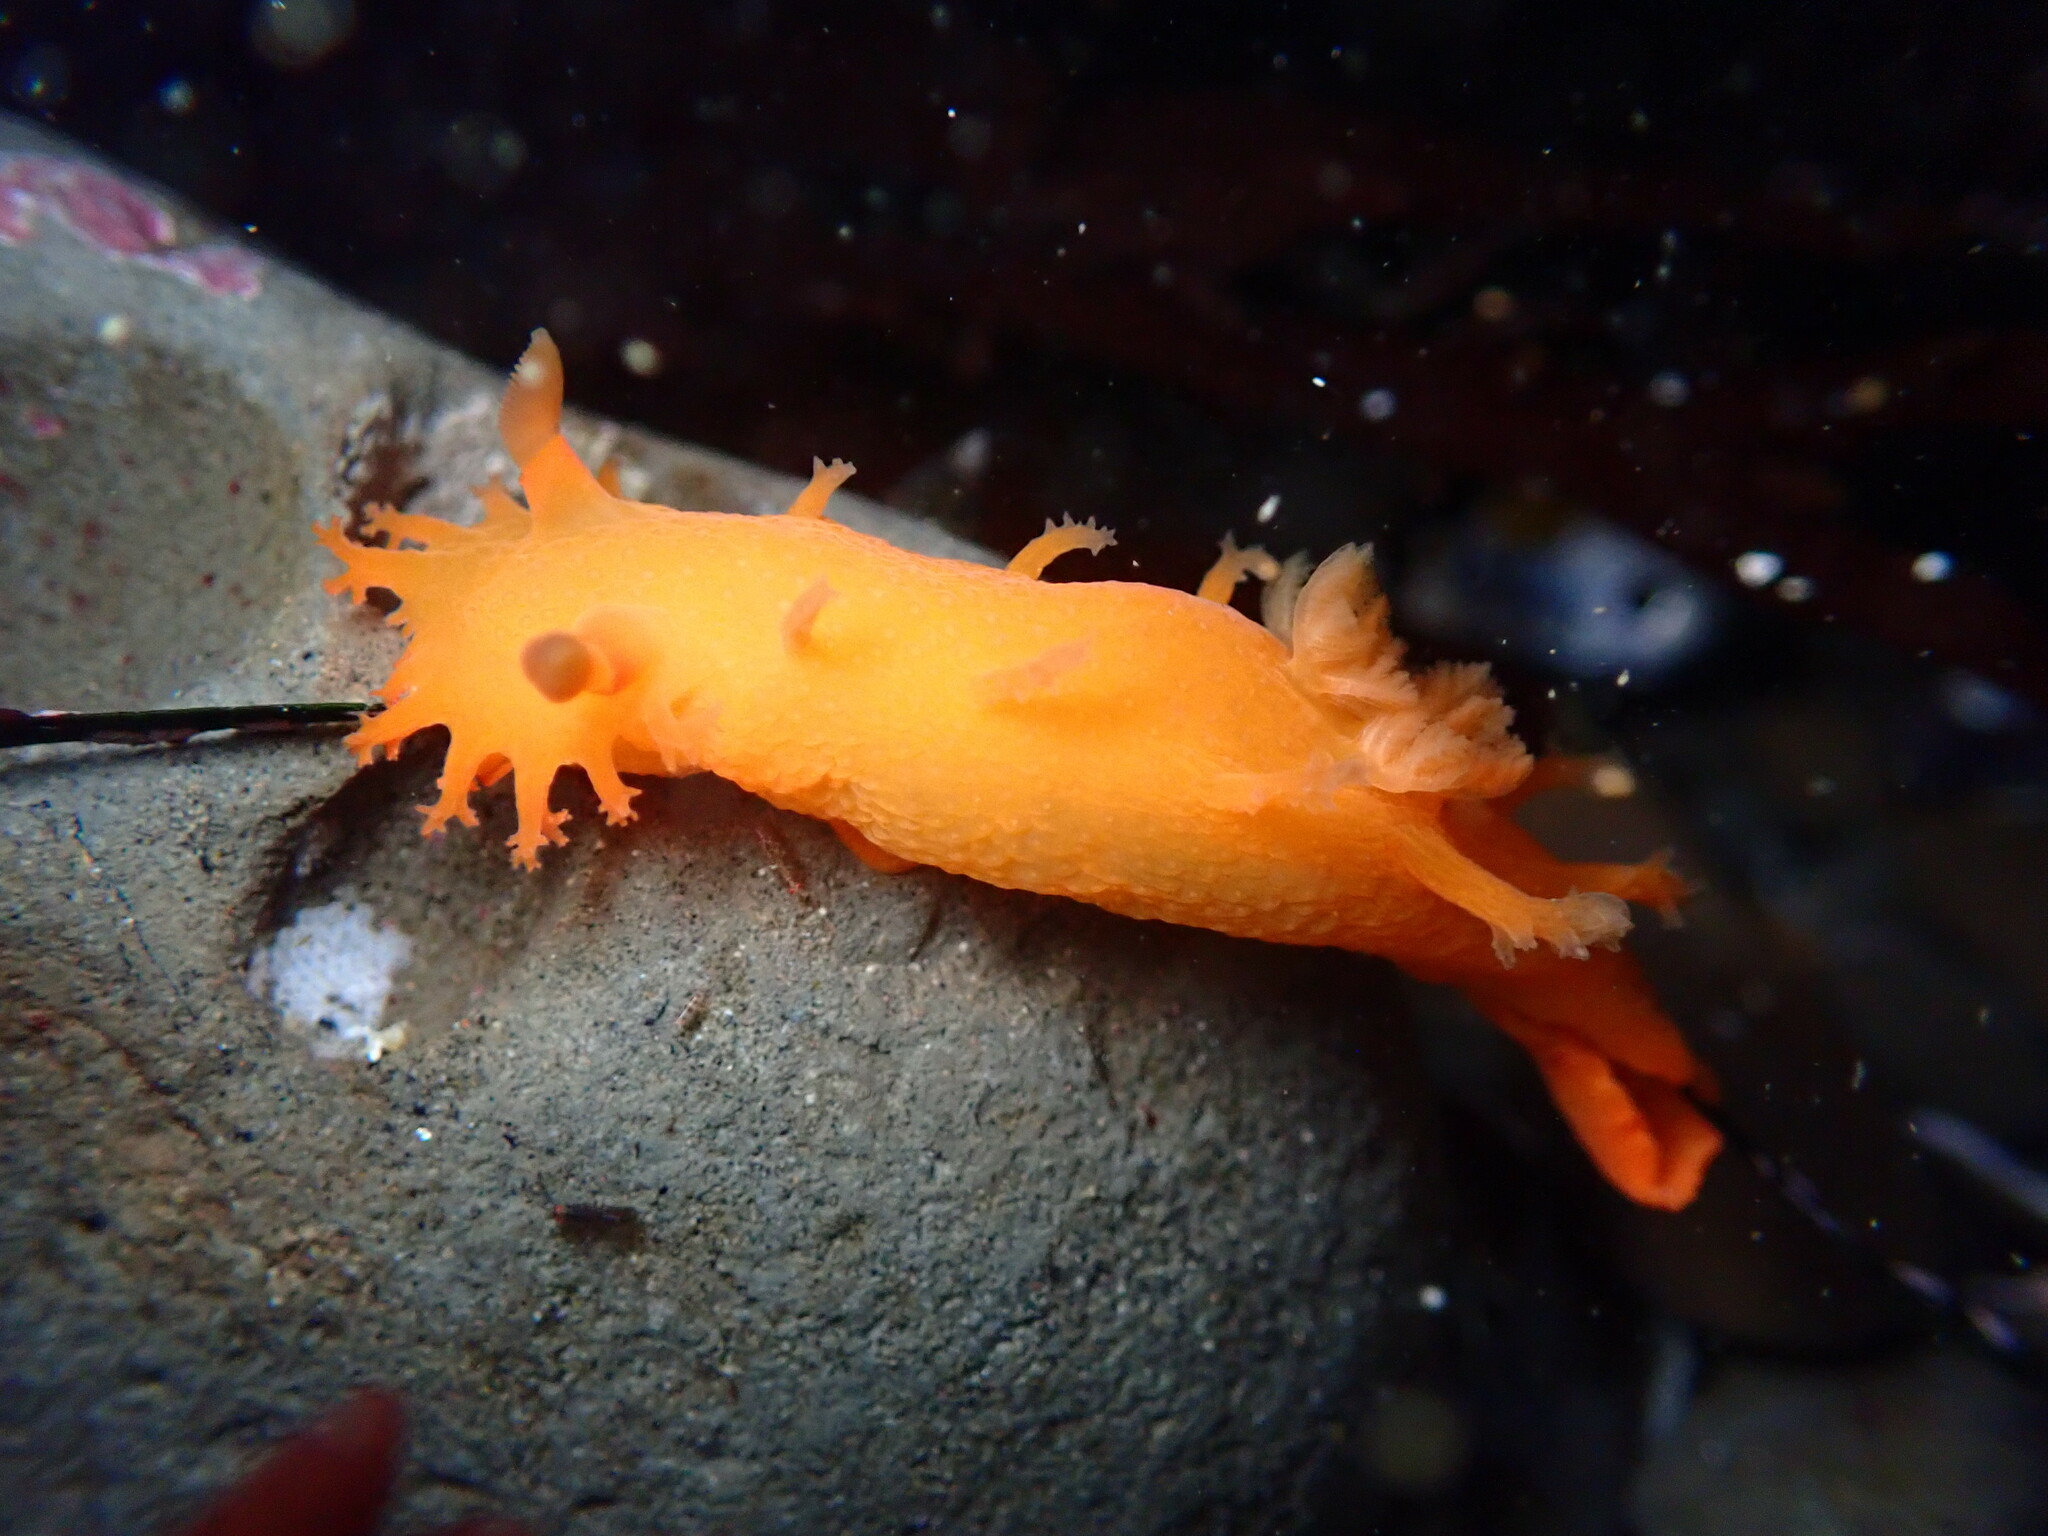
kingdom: Animalia
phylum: Mollusca
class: Gastropoda
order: Nudibranchia
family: Polyceridae
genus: Triopha
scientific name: Triopha maculata
